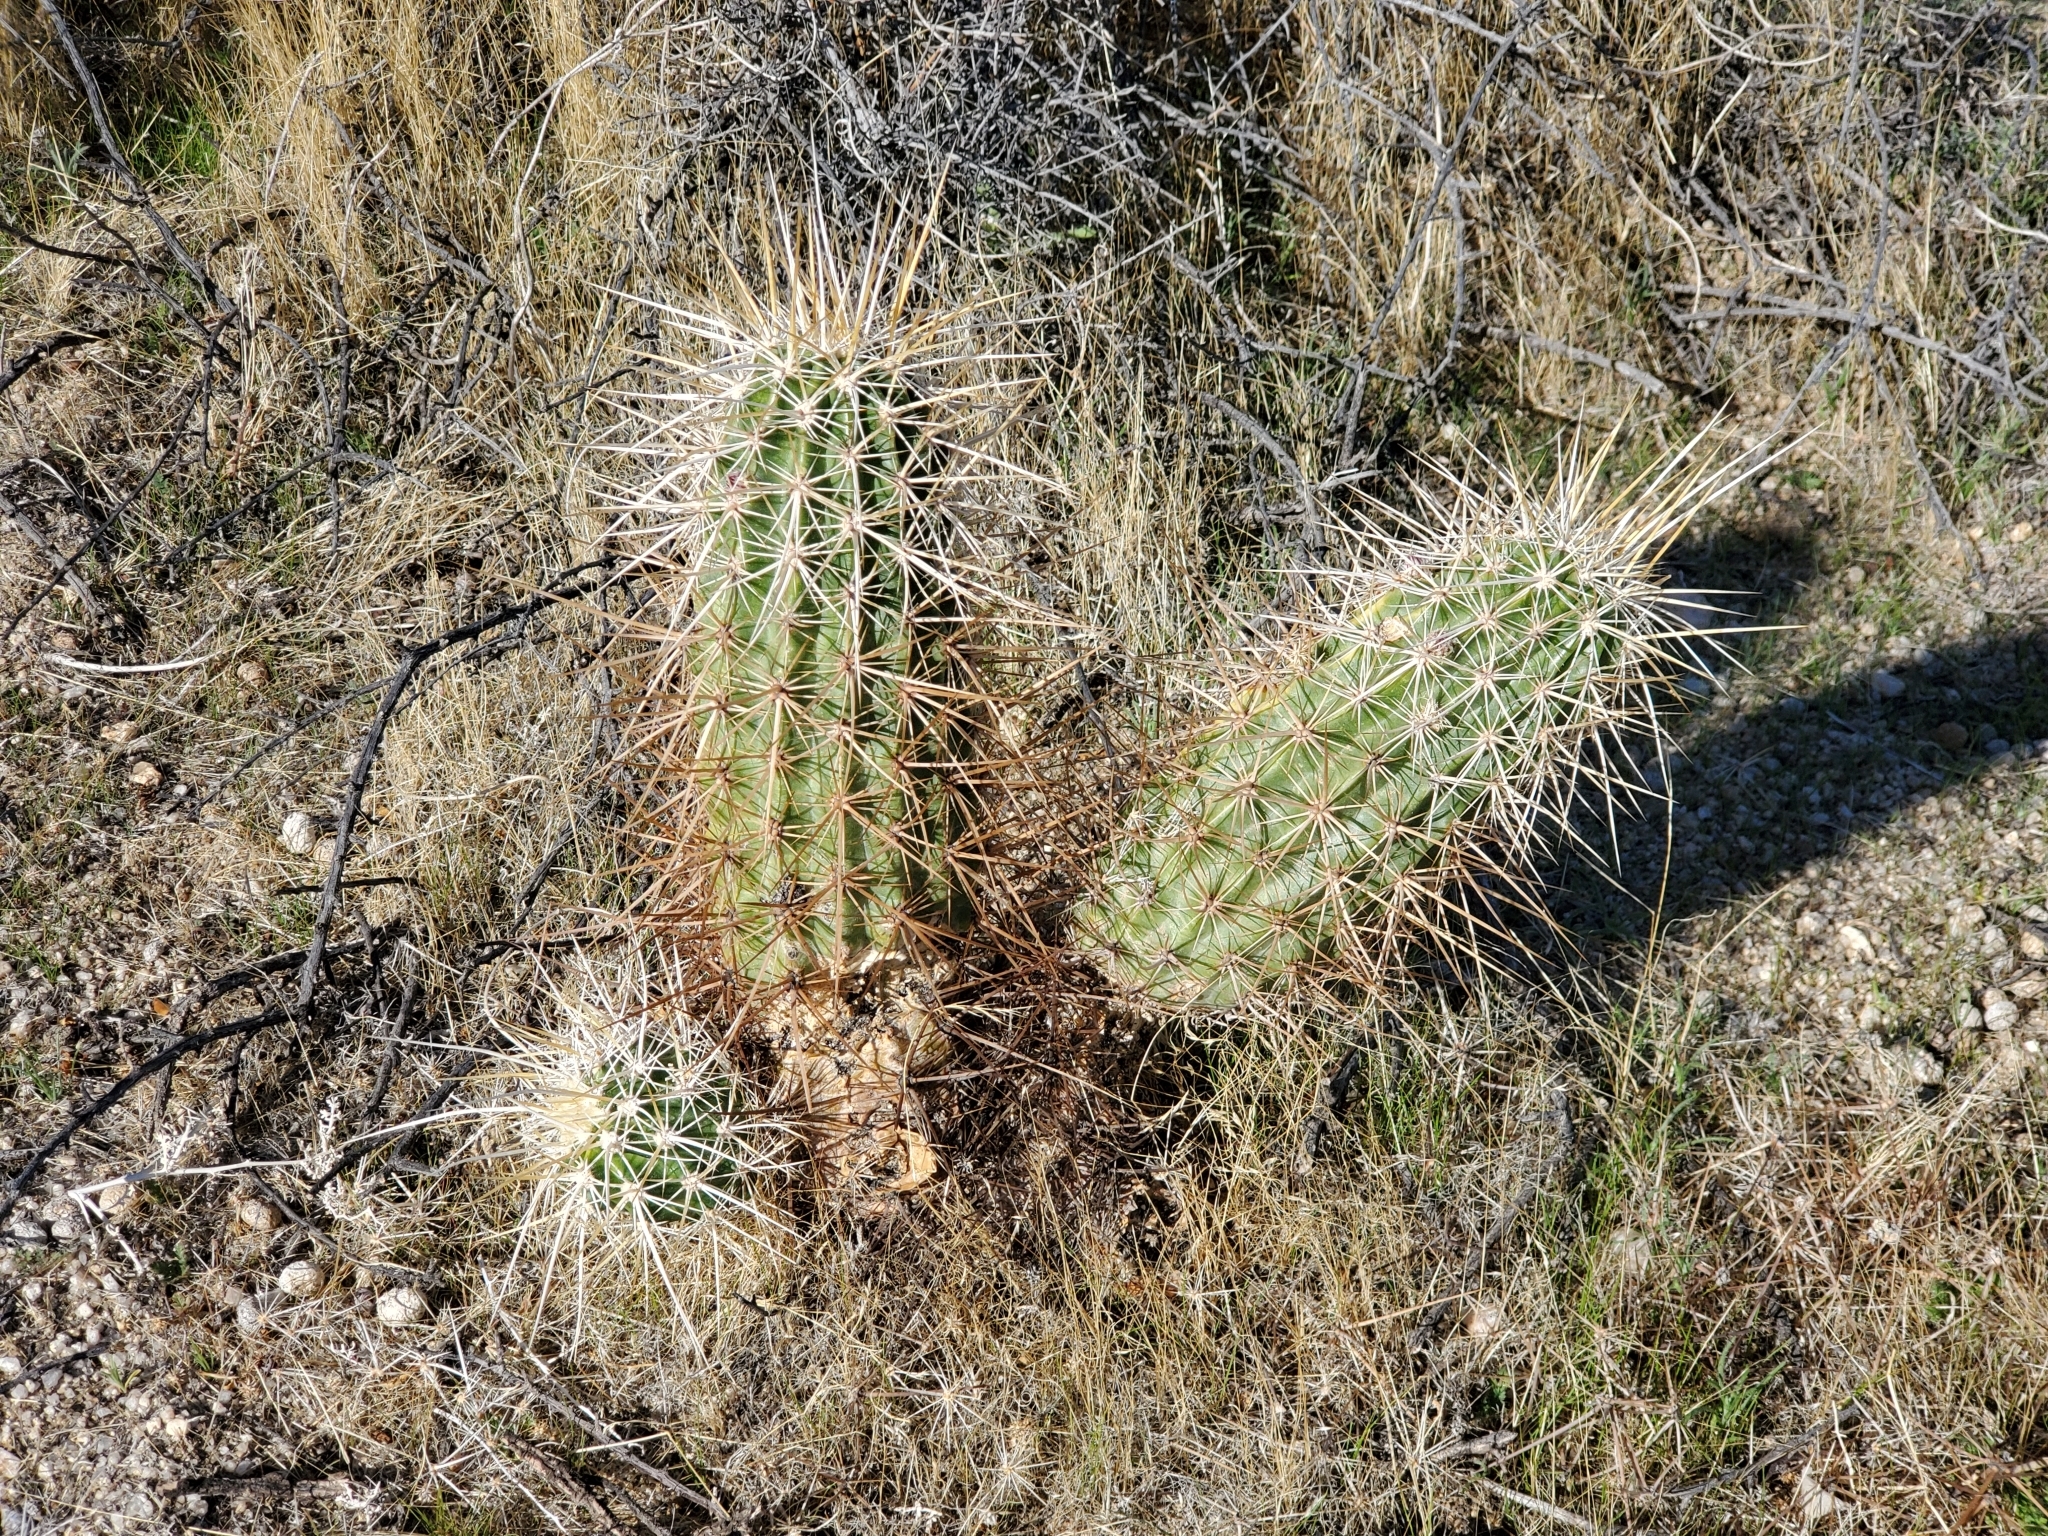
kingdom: Plantae
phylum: Tracheophyta
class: Magnoliopsida
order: Caryophyllales
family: Cactaceae
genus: Echinocereus
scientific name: Echinocereus engelmannii
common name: Engelmann's hedgehog cactus
